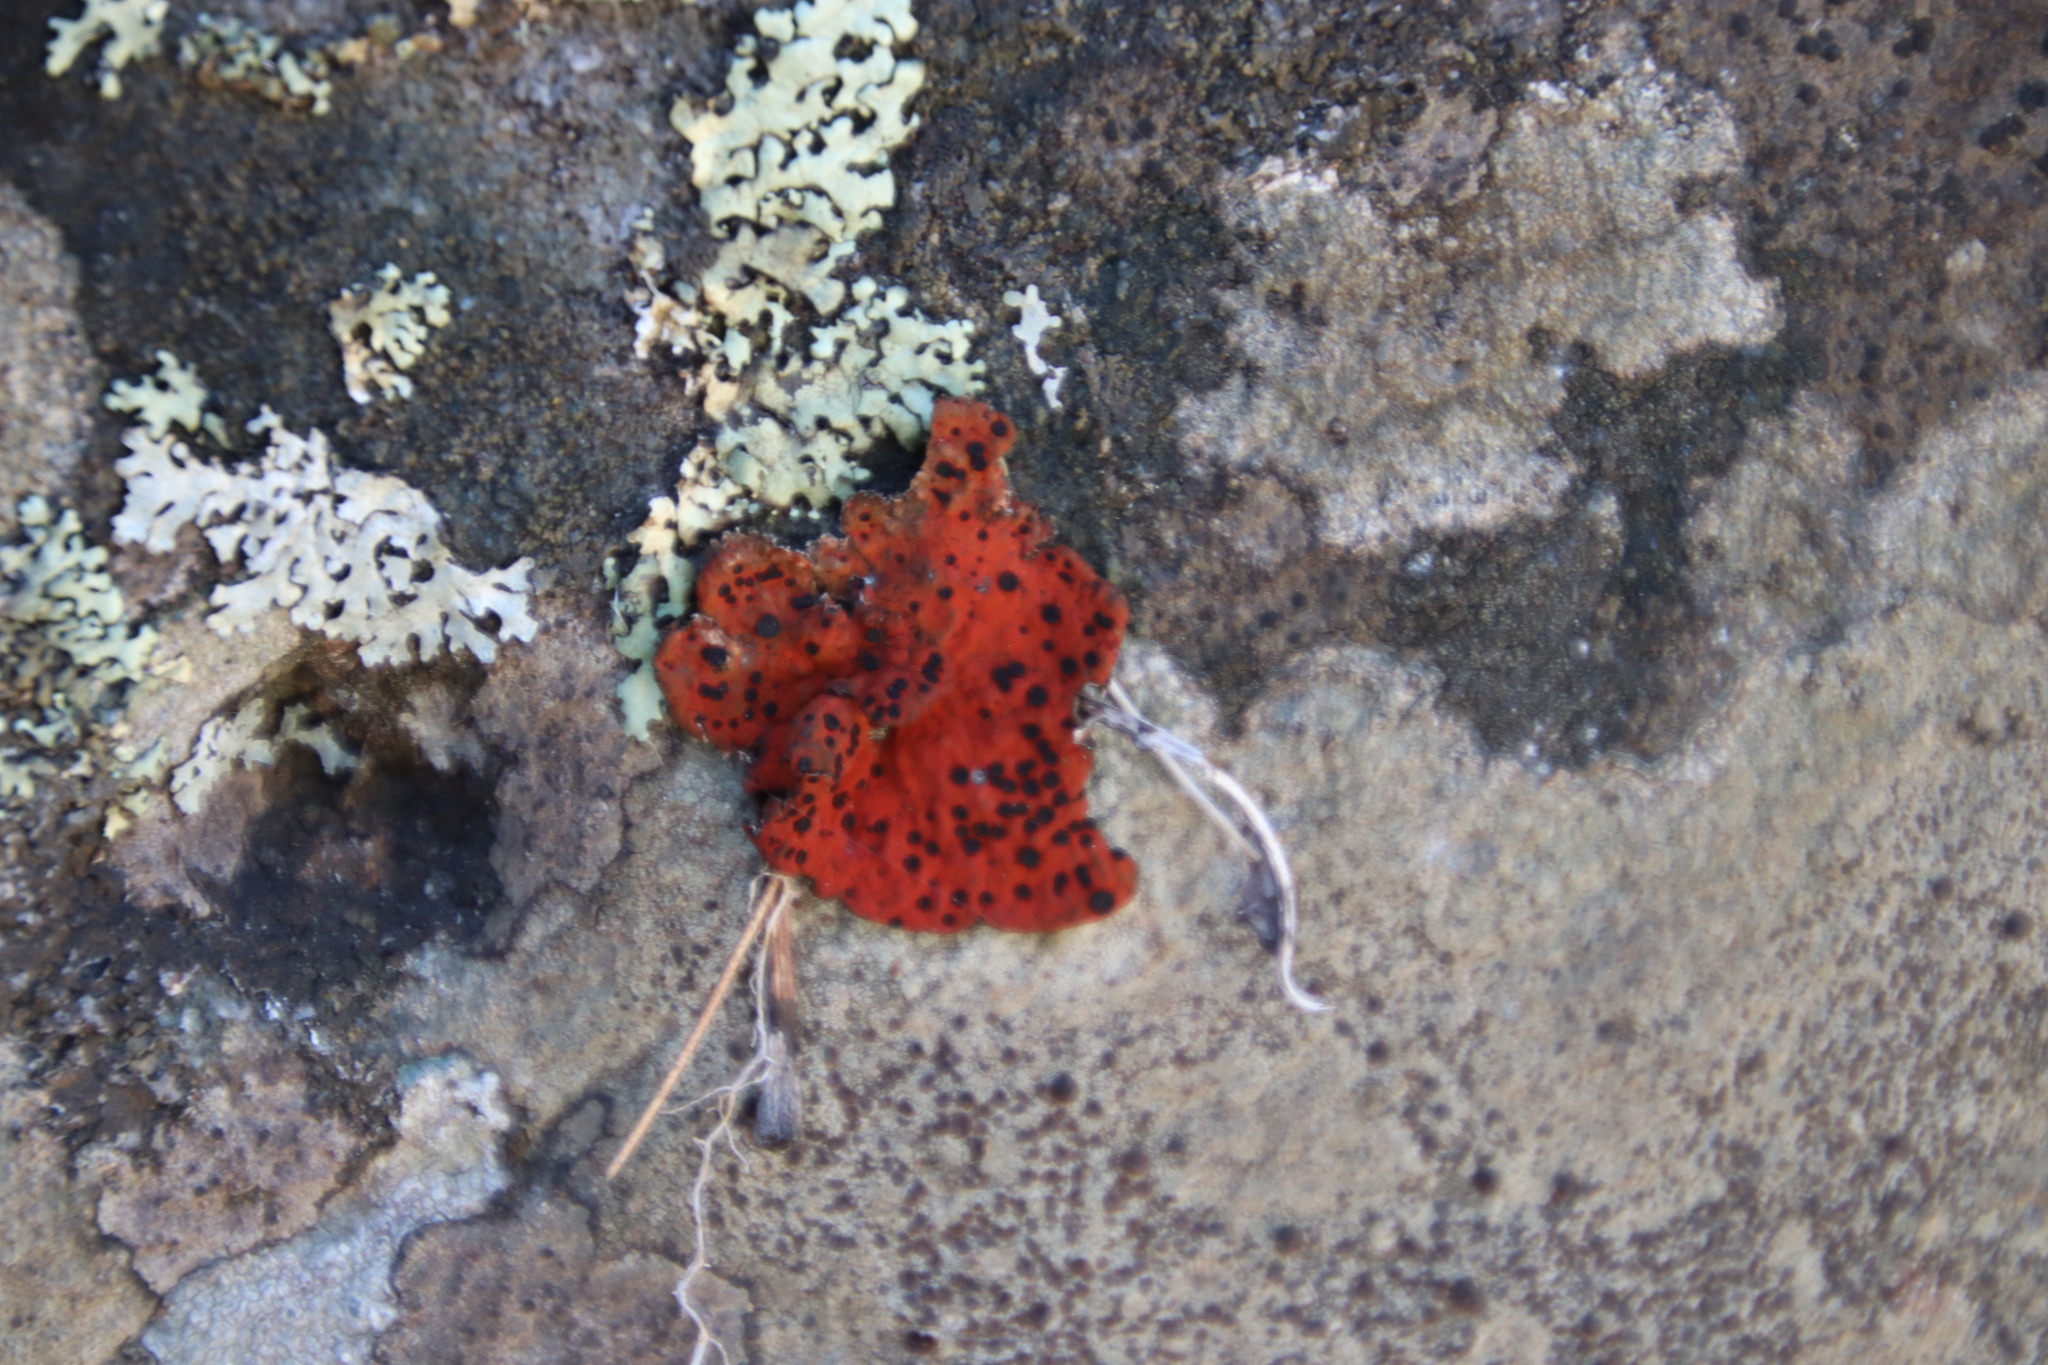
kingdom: Fungi
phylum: Ascomycota
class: Lecanoromycetes
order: Umbilicariales
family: Umbilicariaceae
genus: Lasallia
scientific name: Lasallia rubiginosa
